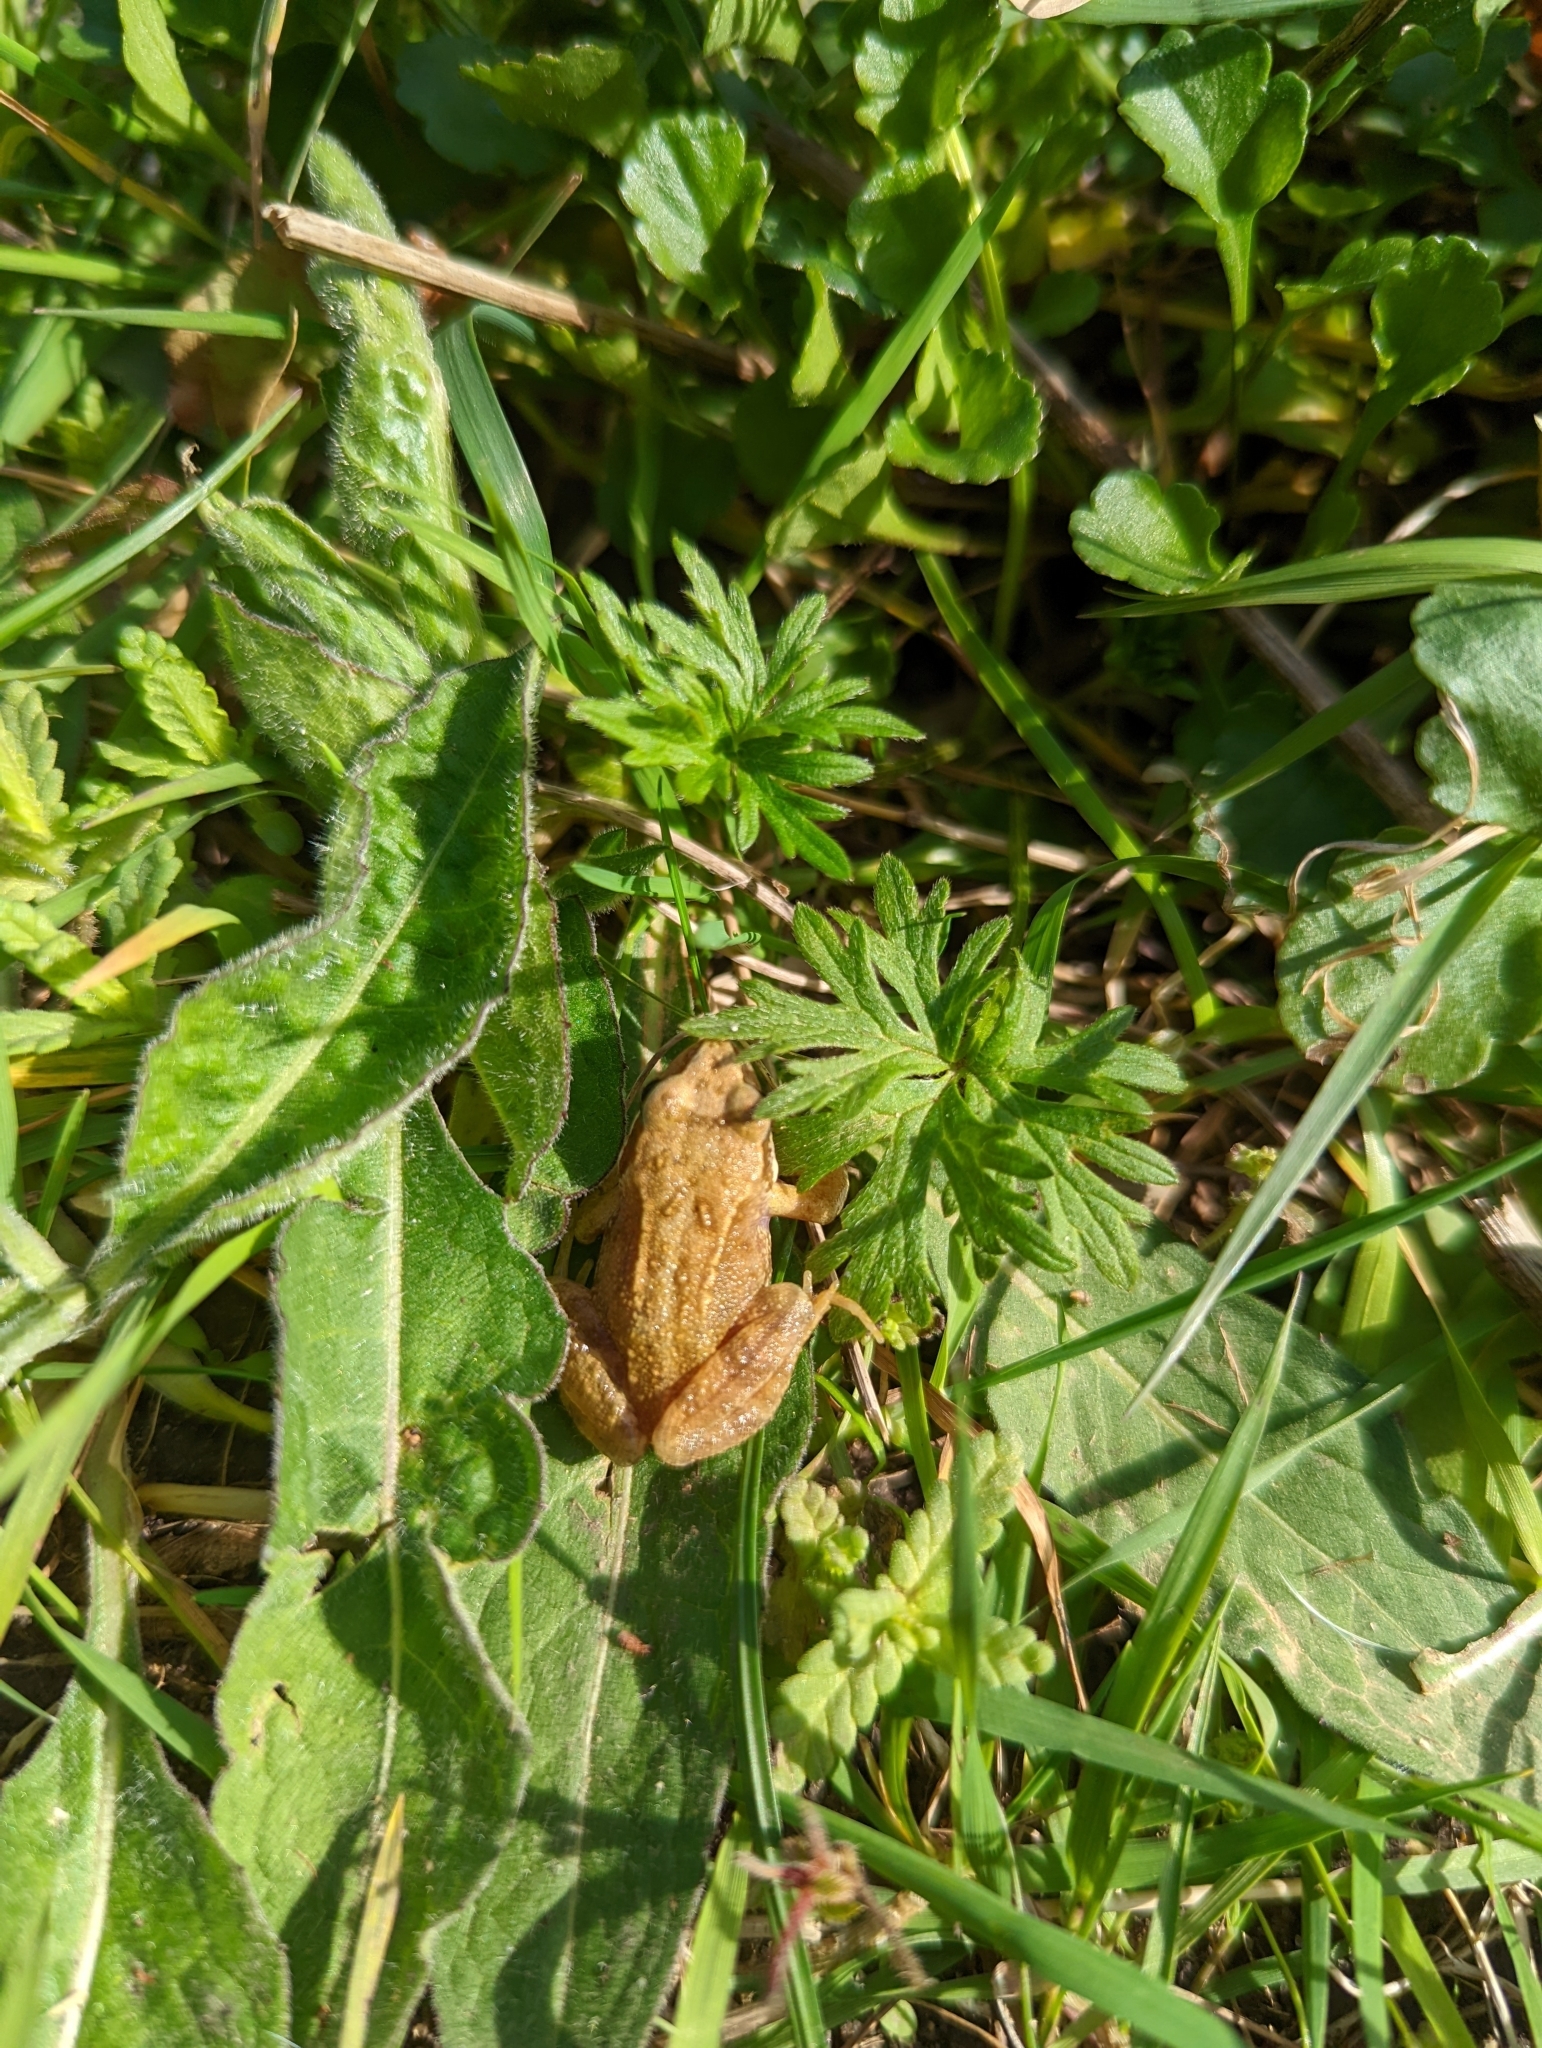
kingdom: Animalia
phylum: Chordata
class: Amphibia
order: Anura
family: Ranidae
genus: Rana
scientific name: Rana temporaria
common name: Common frog
